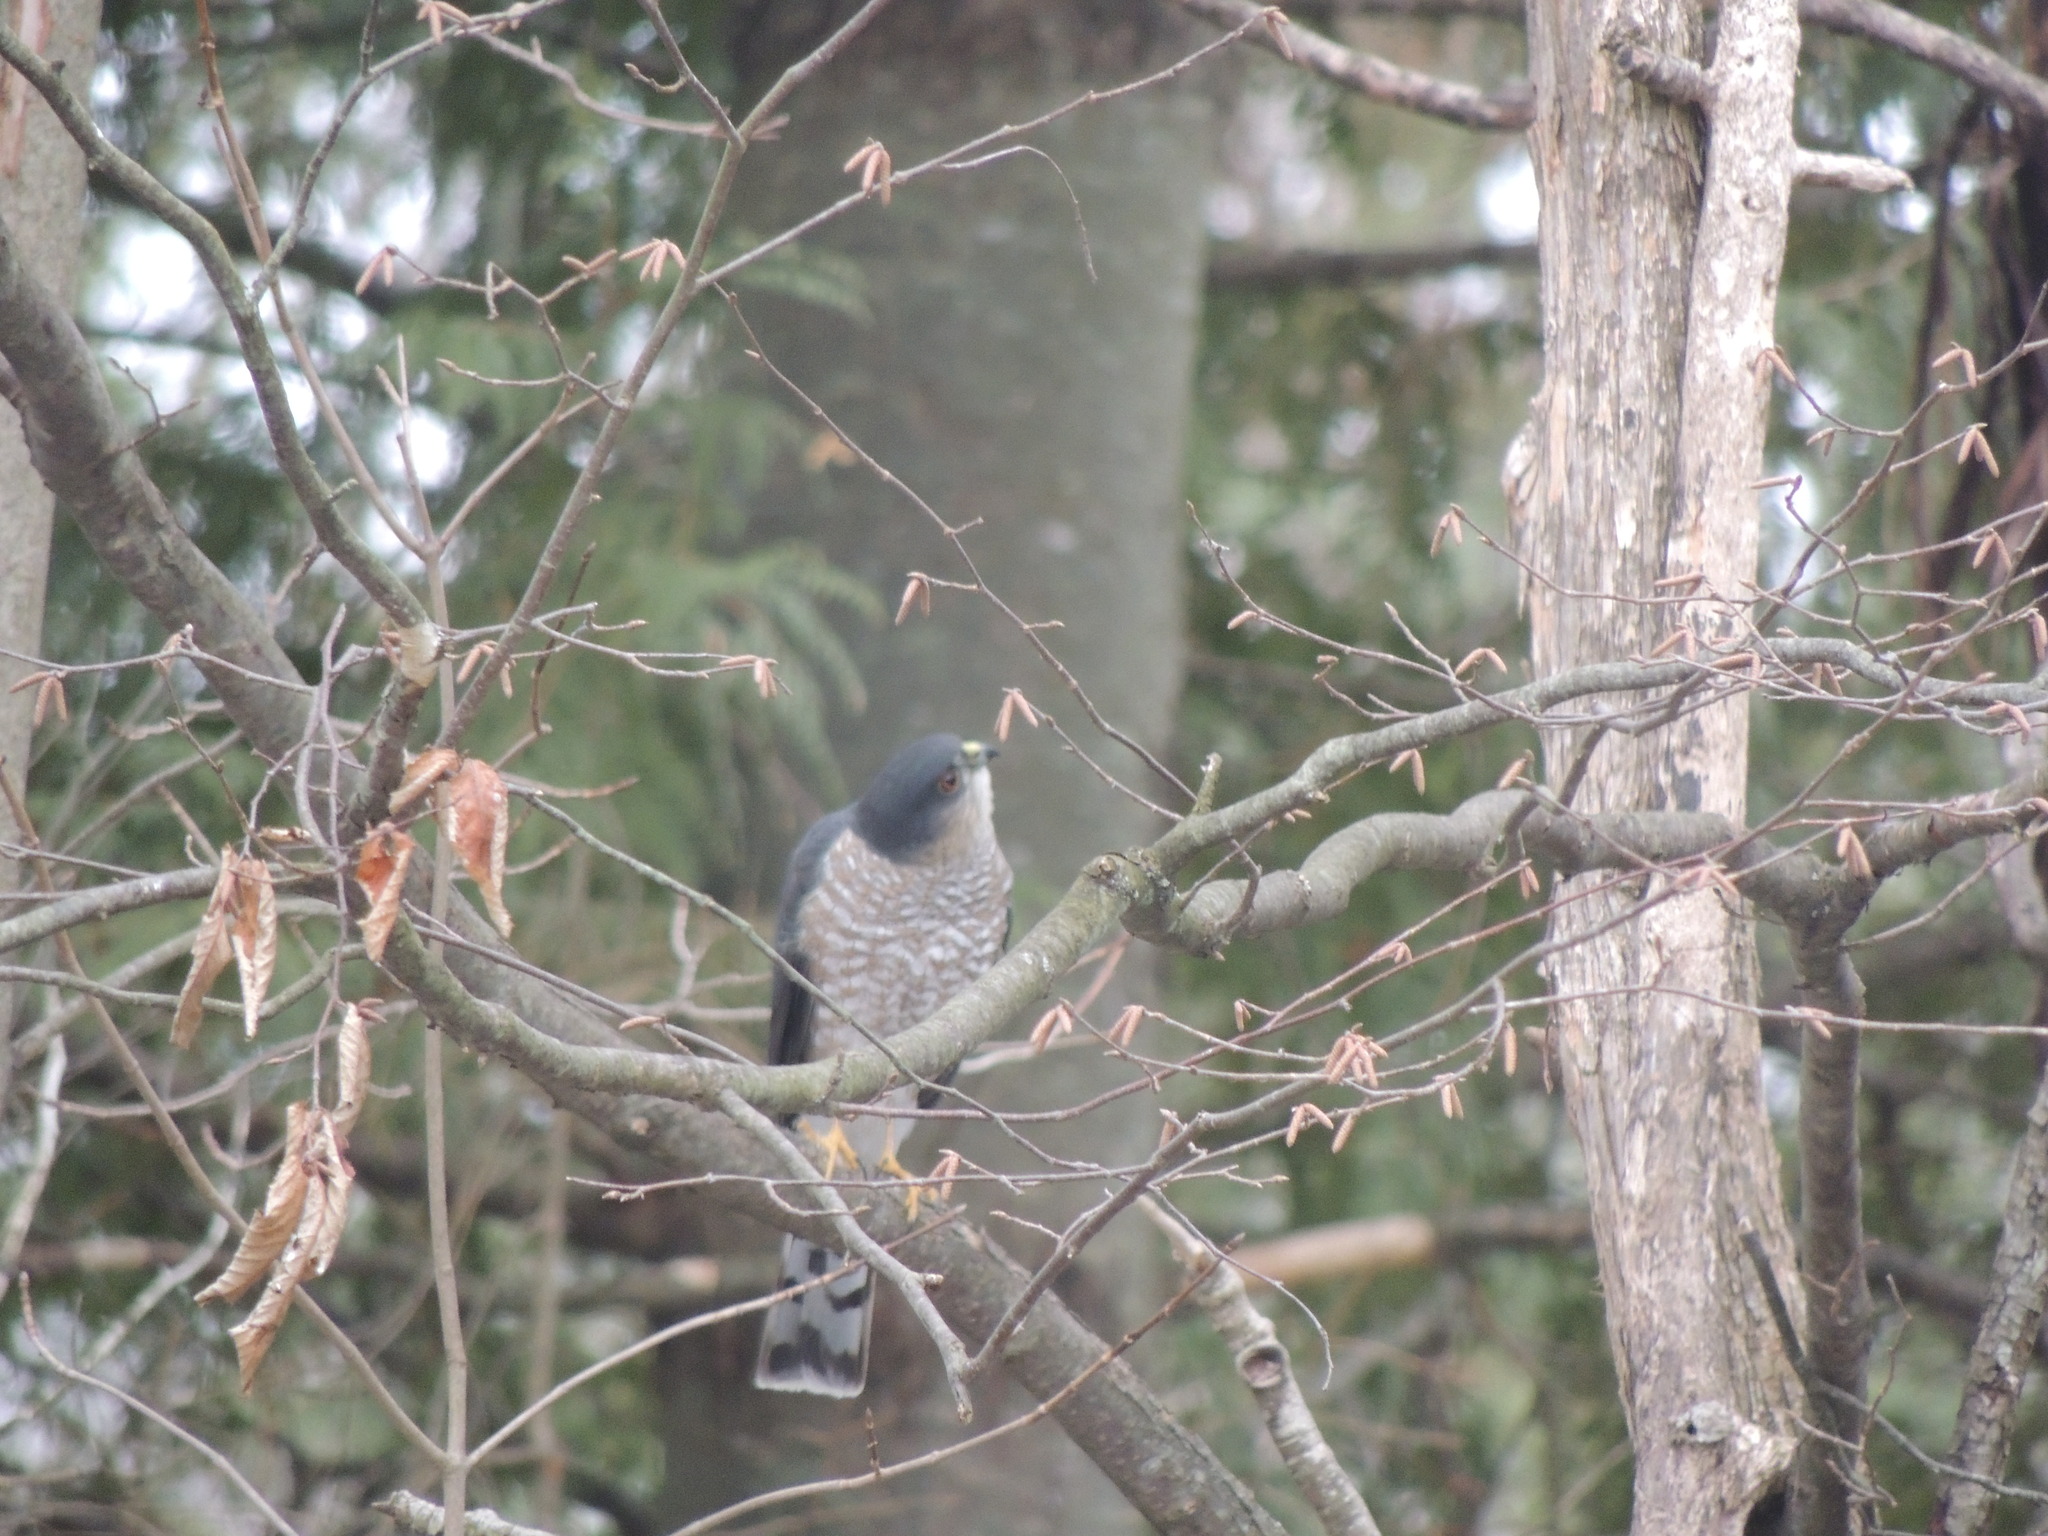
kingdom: Animalia
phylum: Chordata
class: Aves
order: Accipitriformes
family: Accipitridae
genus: Accipiter
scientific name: Accipiter striatus
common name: Sharp-shinned hawk
